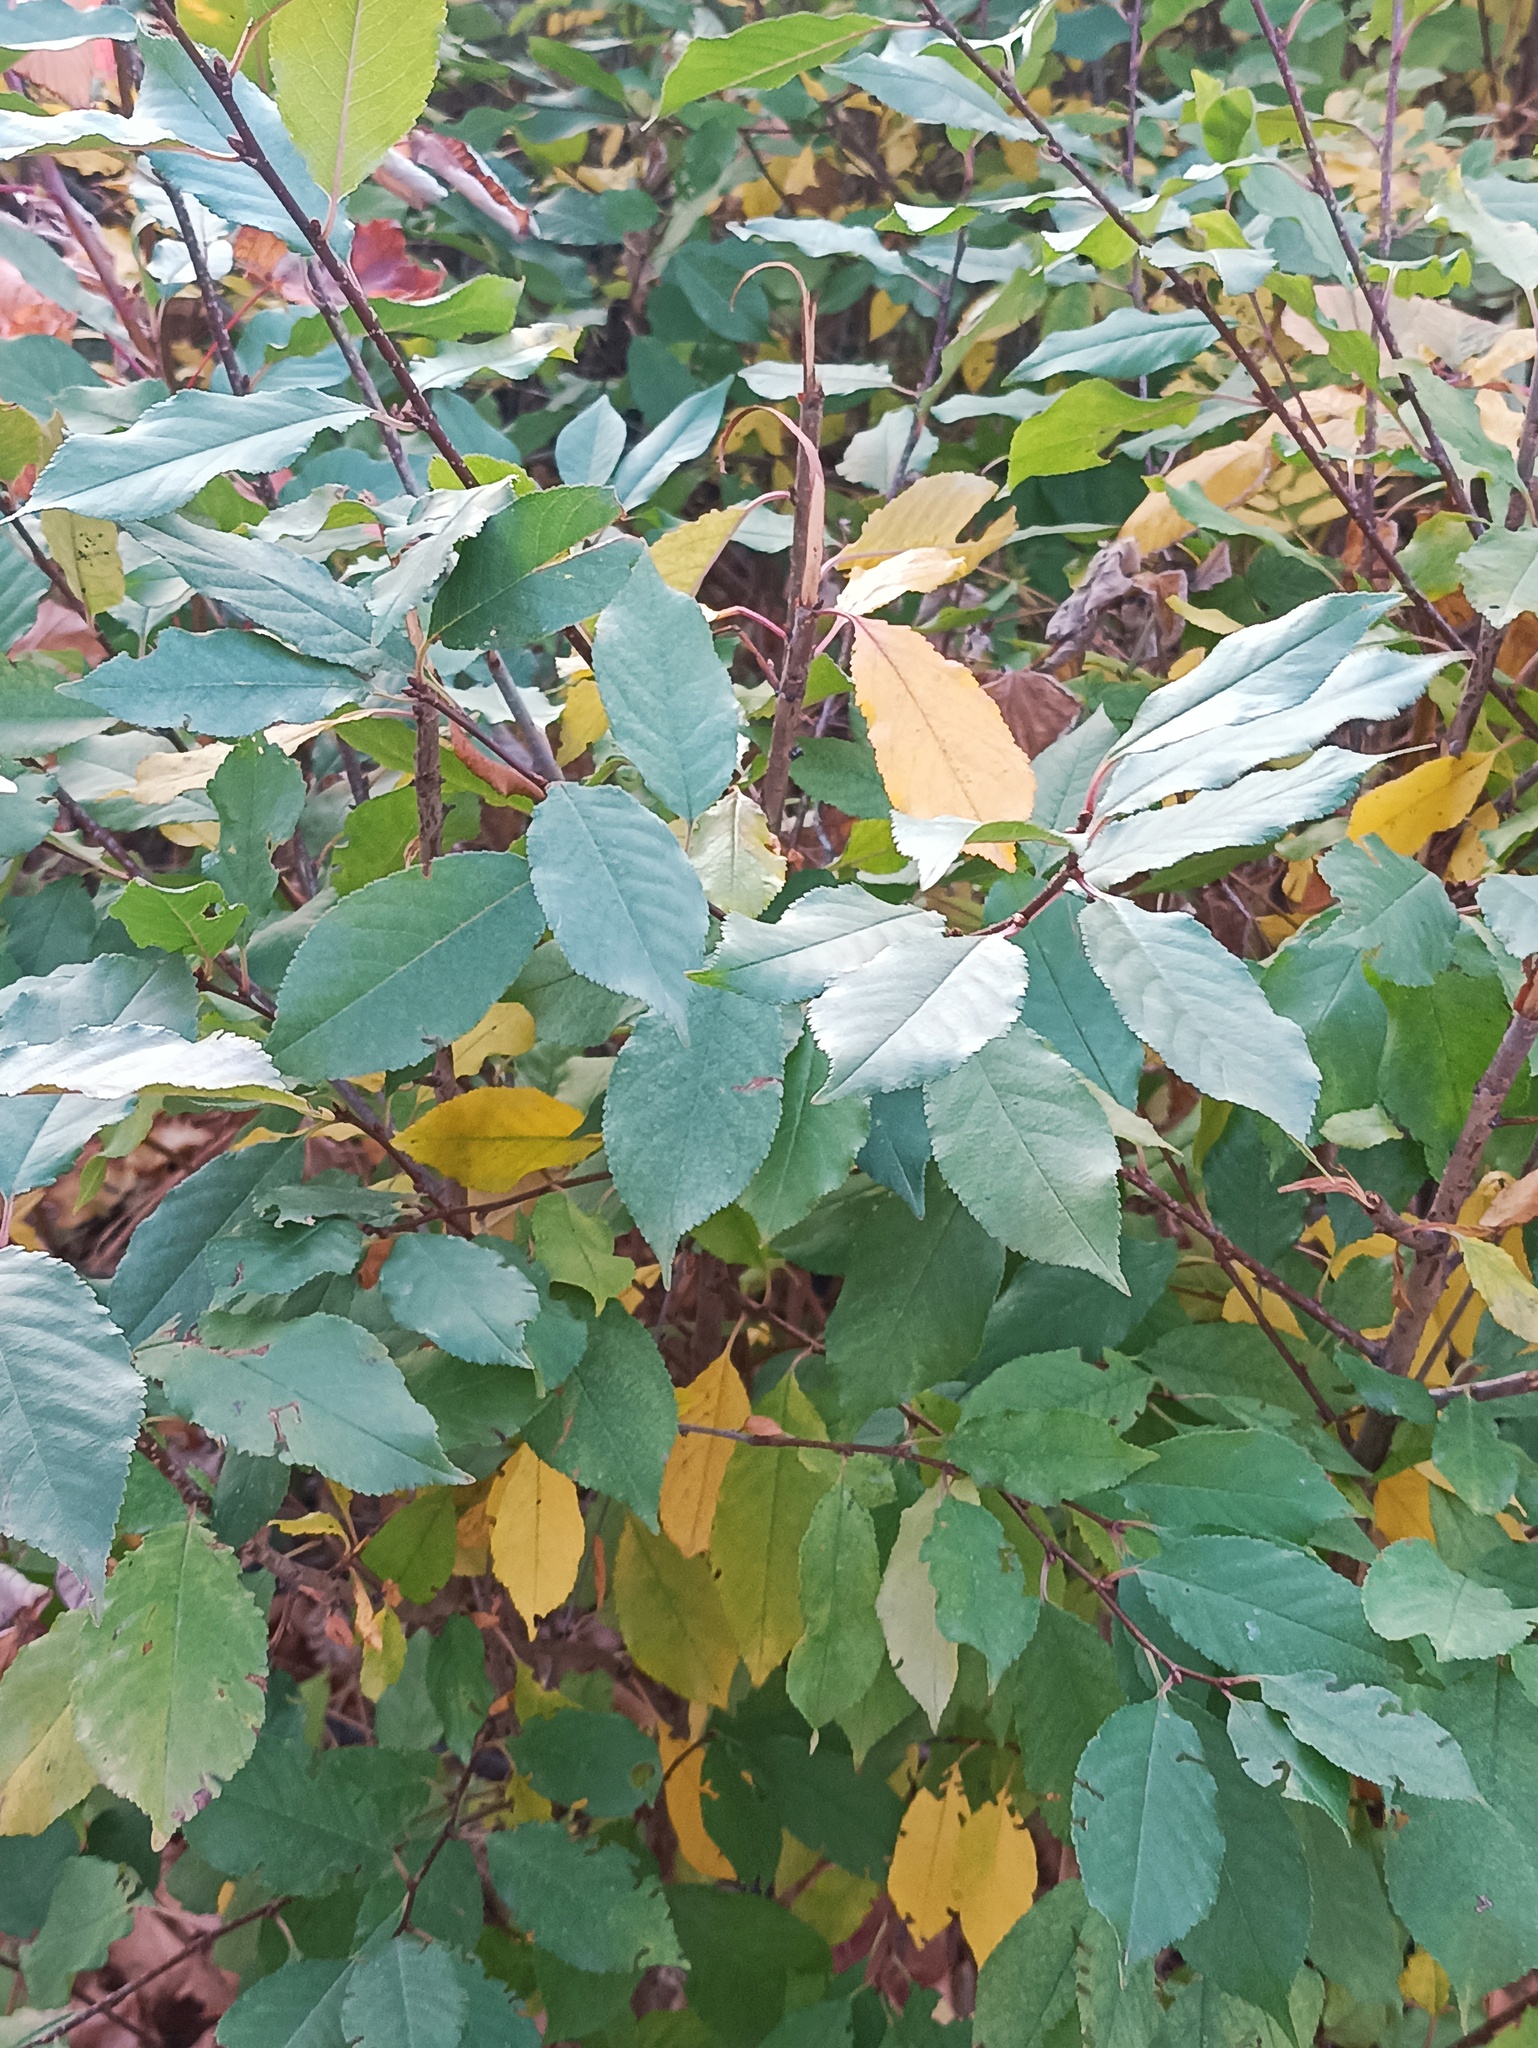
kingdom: Plantae
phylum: Tracheophyta
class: Magnoliopsida
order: Rosales
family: Rosaceae
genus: Prunus
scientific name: Prunus cerasus
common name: Morello cherry
